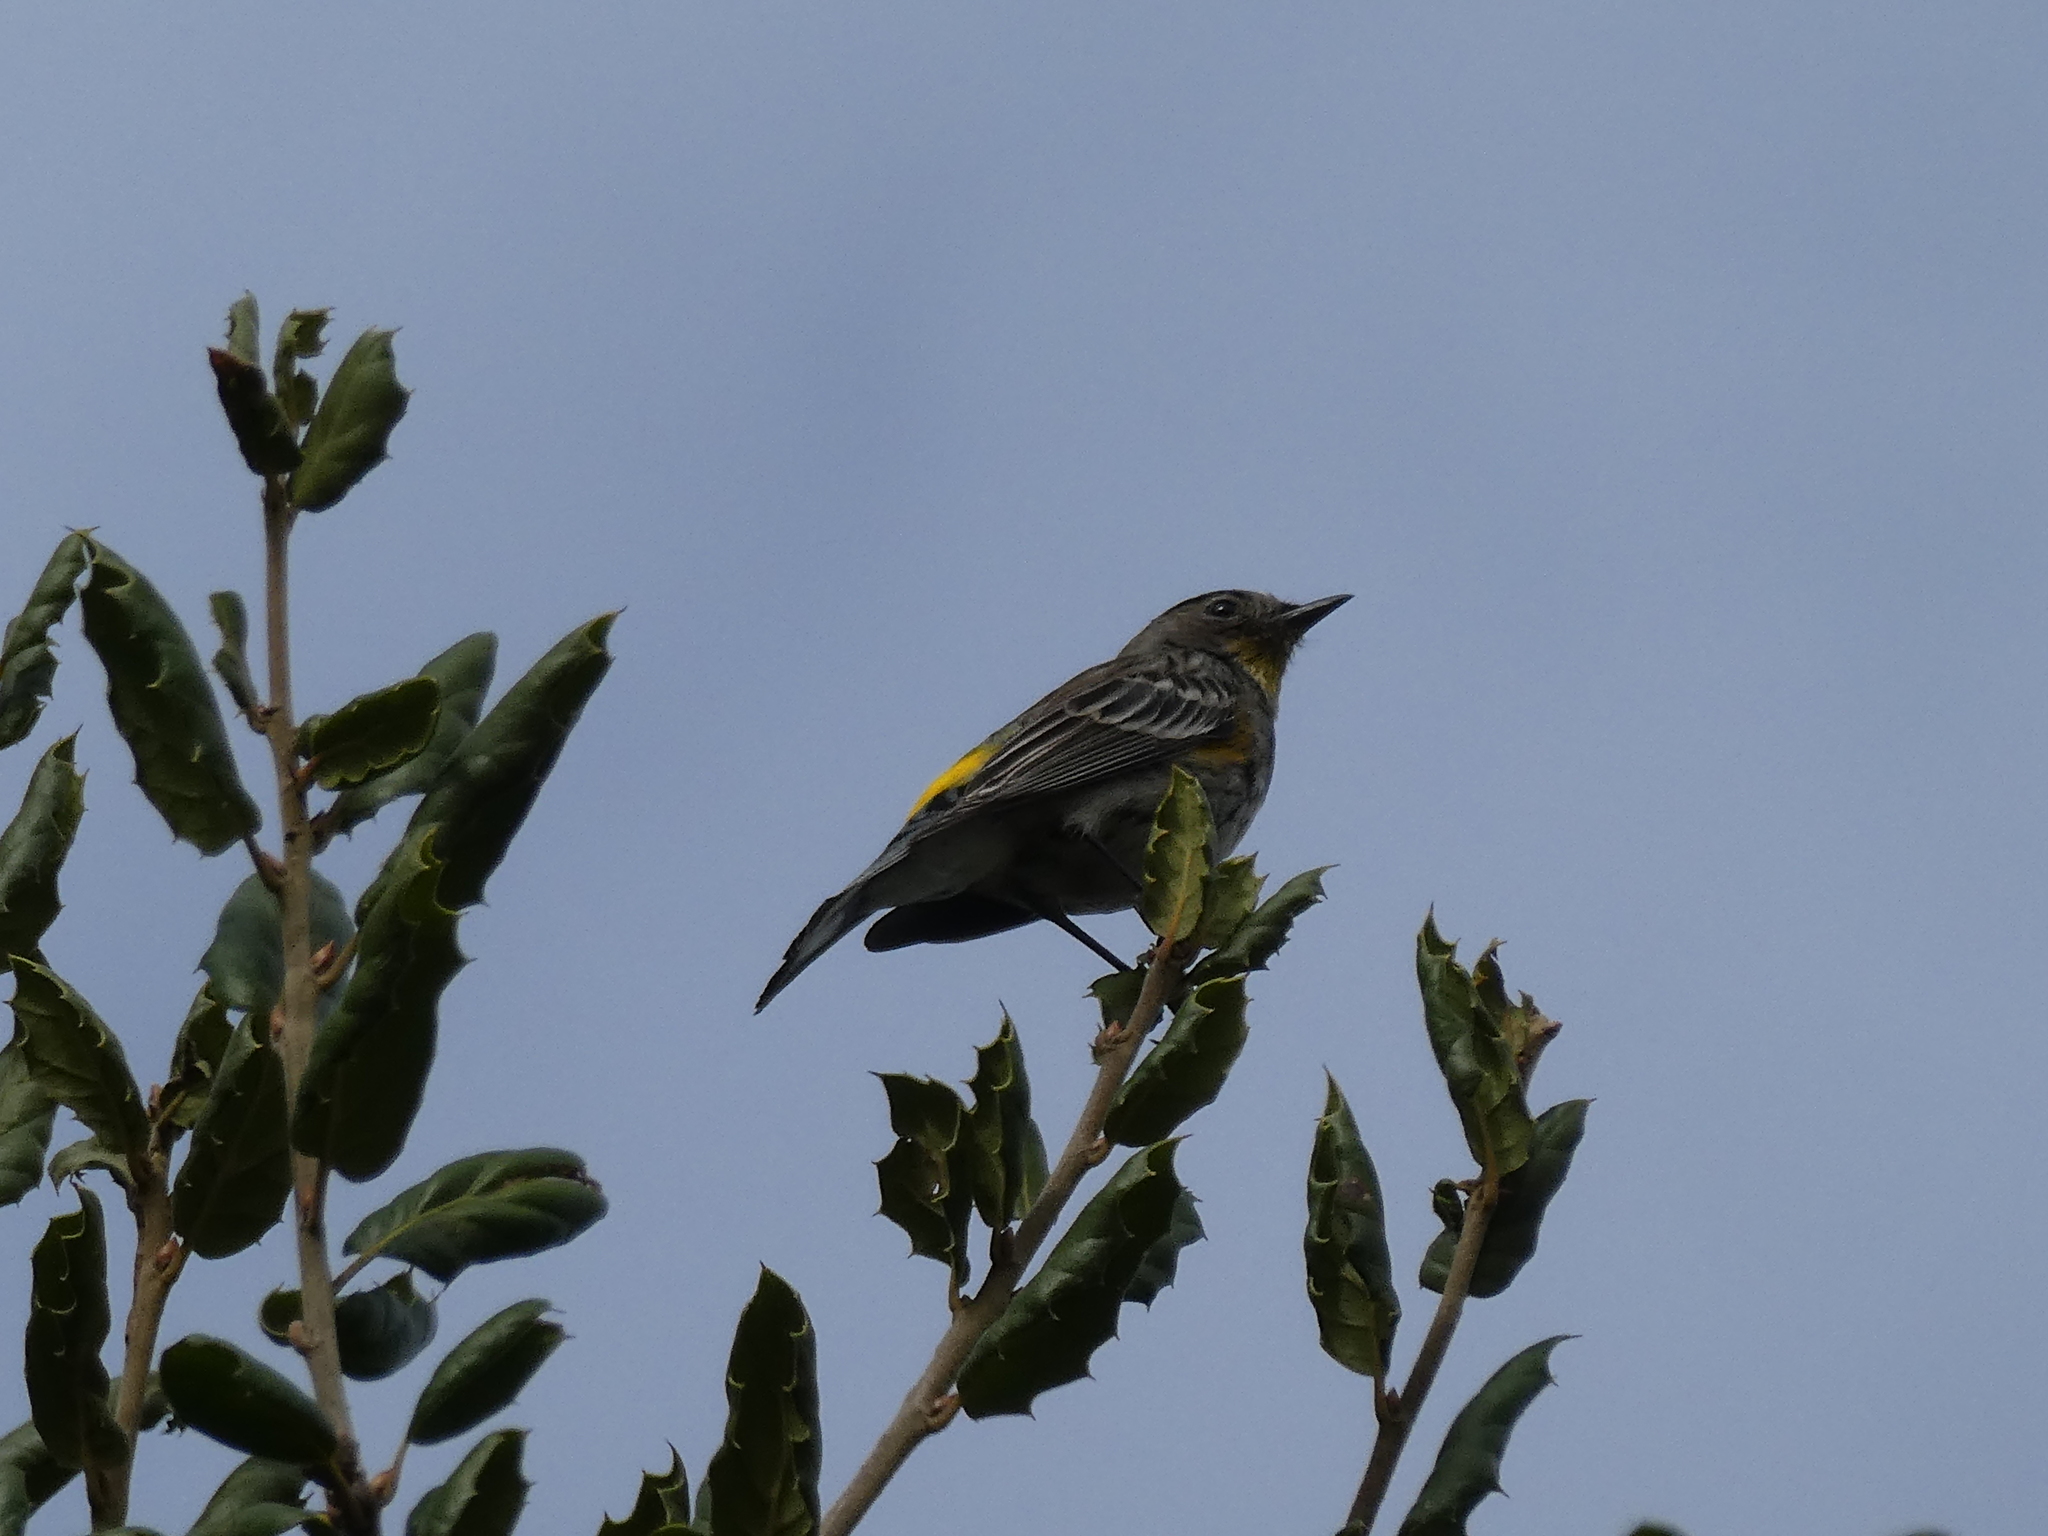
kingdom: Animalia
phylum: Chordata
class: Aves
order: Passeriformes
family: Parulidae
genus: Setophaga
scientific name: Setophaga coronata
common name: Myrtle warbler
